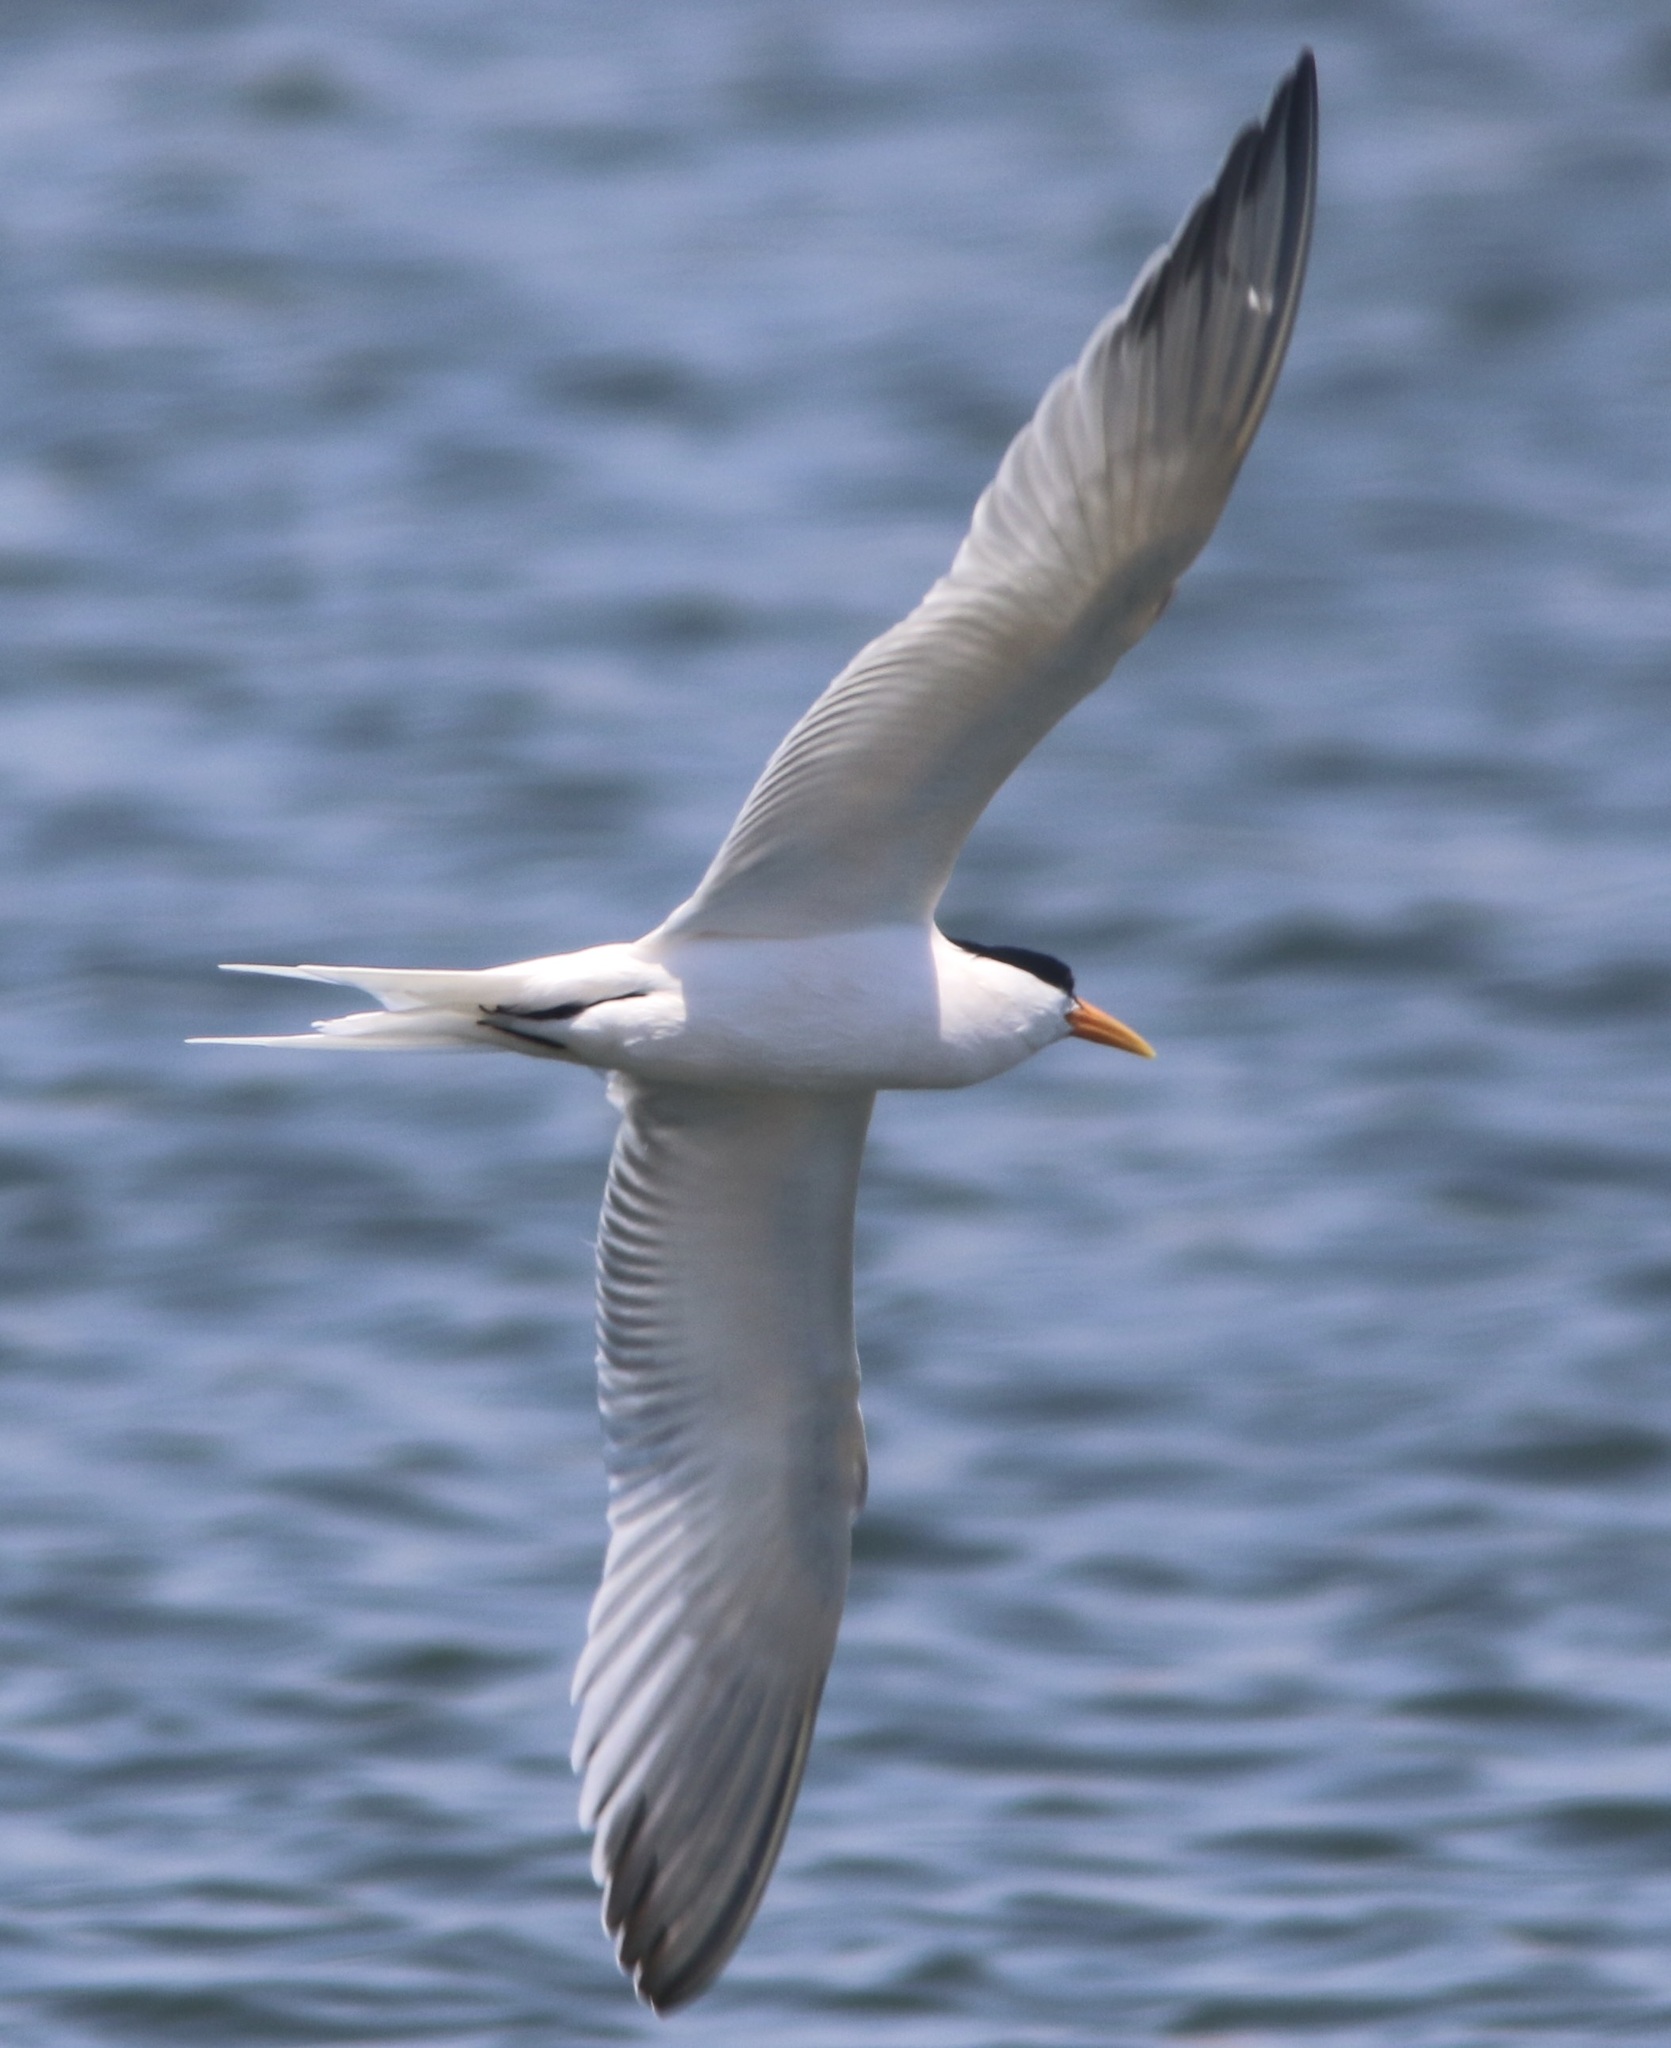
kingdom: Animalia
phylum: Chordata
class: Aves
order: Charadriiformes
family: Laridae
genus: Thalasseus
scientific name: Thalasseus elegans
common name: Elegant tern
